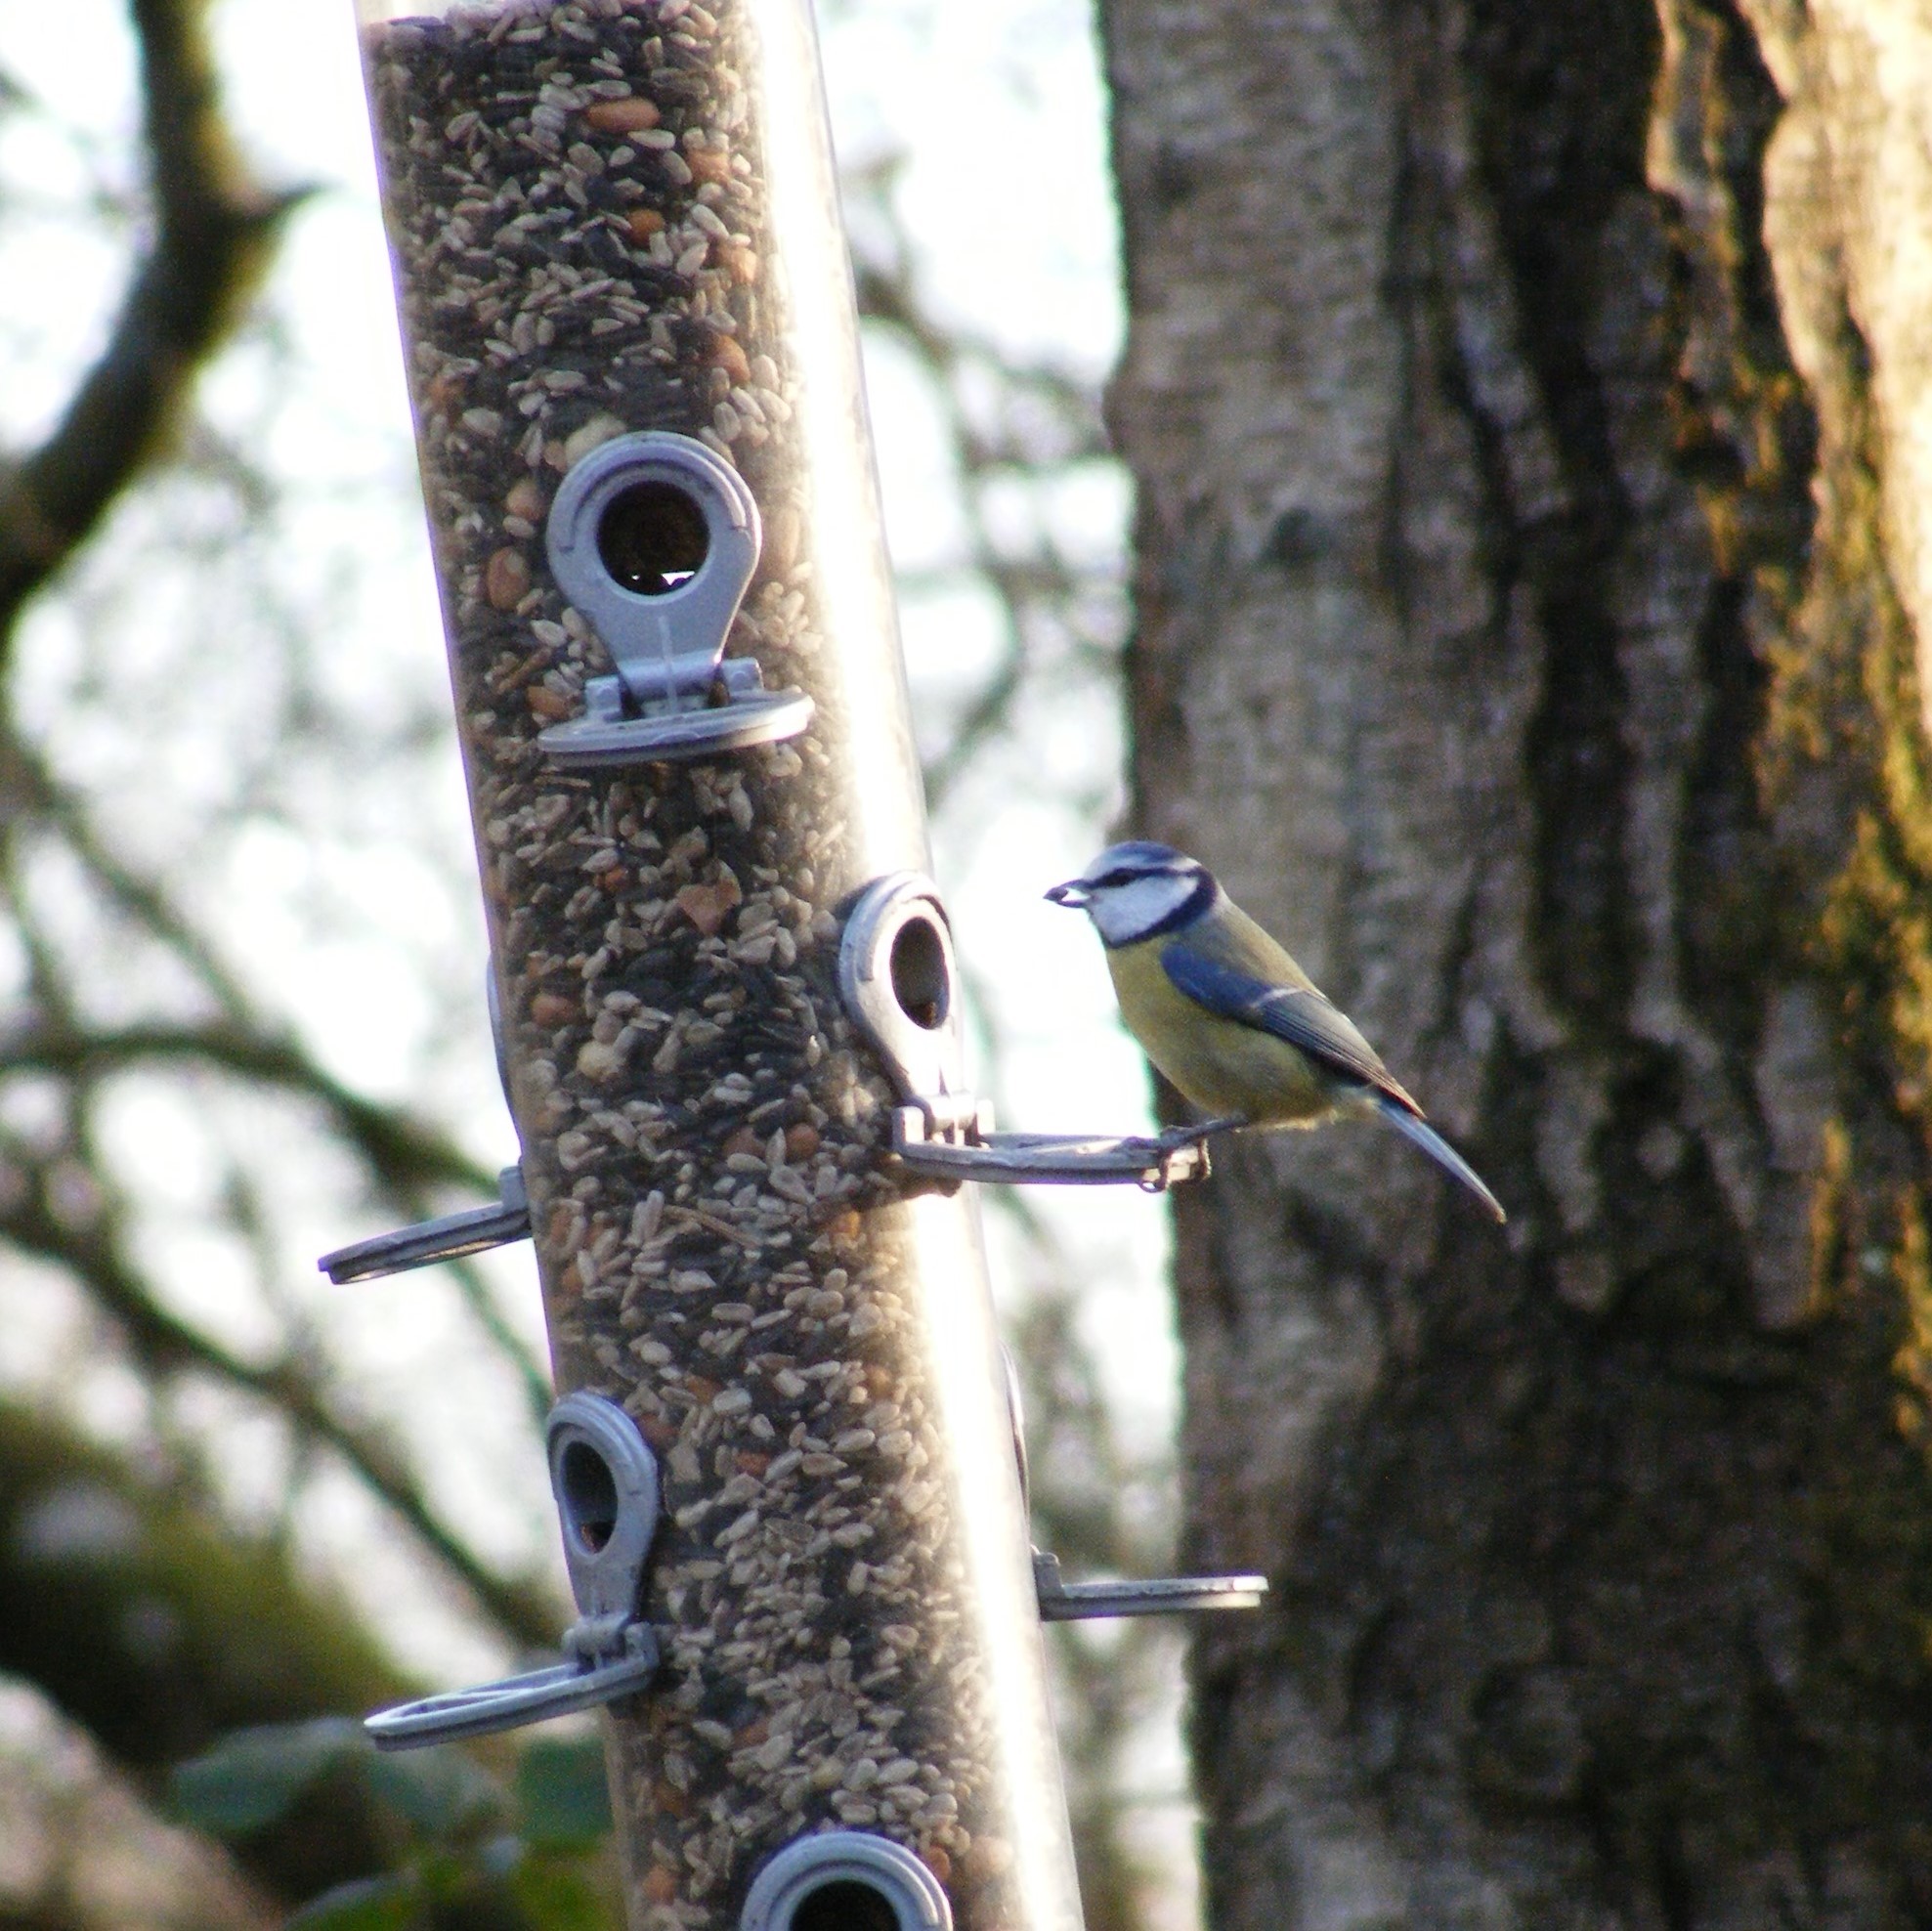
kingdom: Animalia
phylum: Chordata
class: Aves
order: Passeriformes
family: Paridae
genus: Cyanistes
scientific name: Cyanistes caeruleus
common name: Eurasian blue tit
